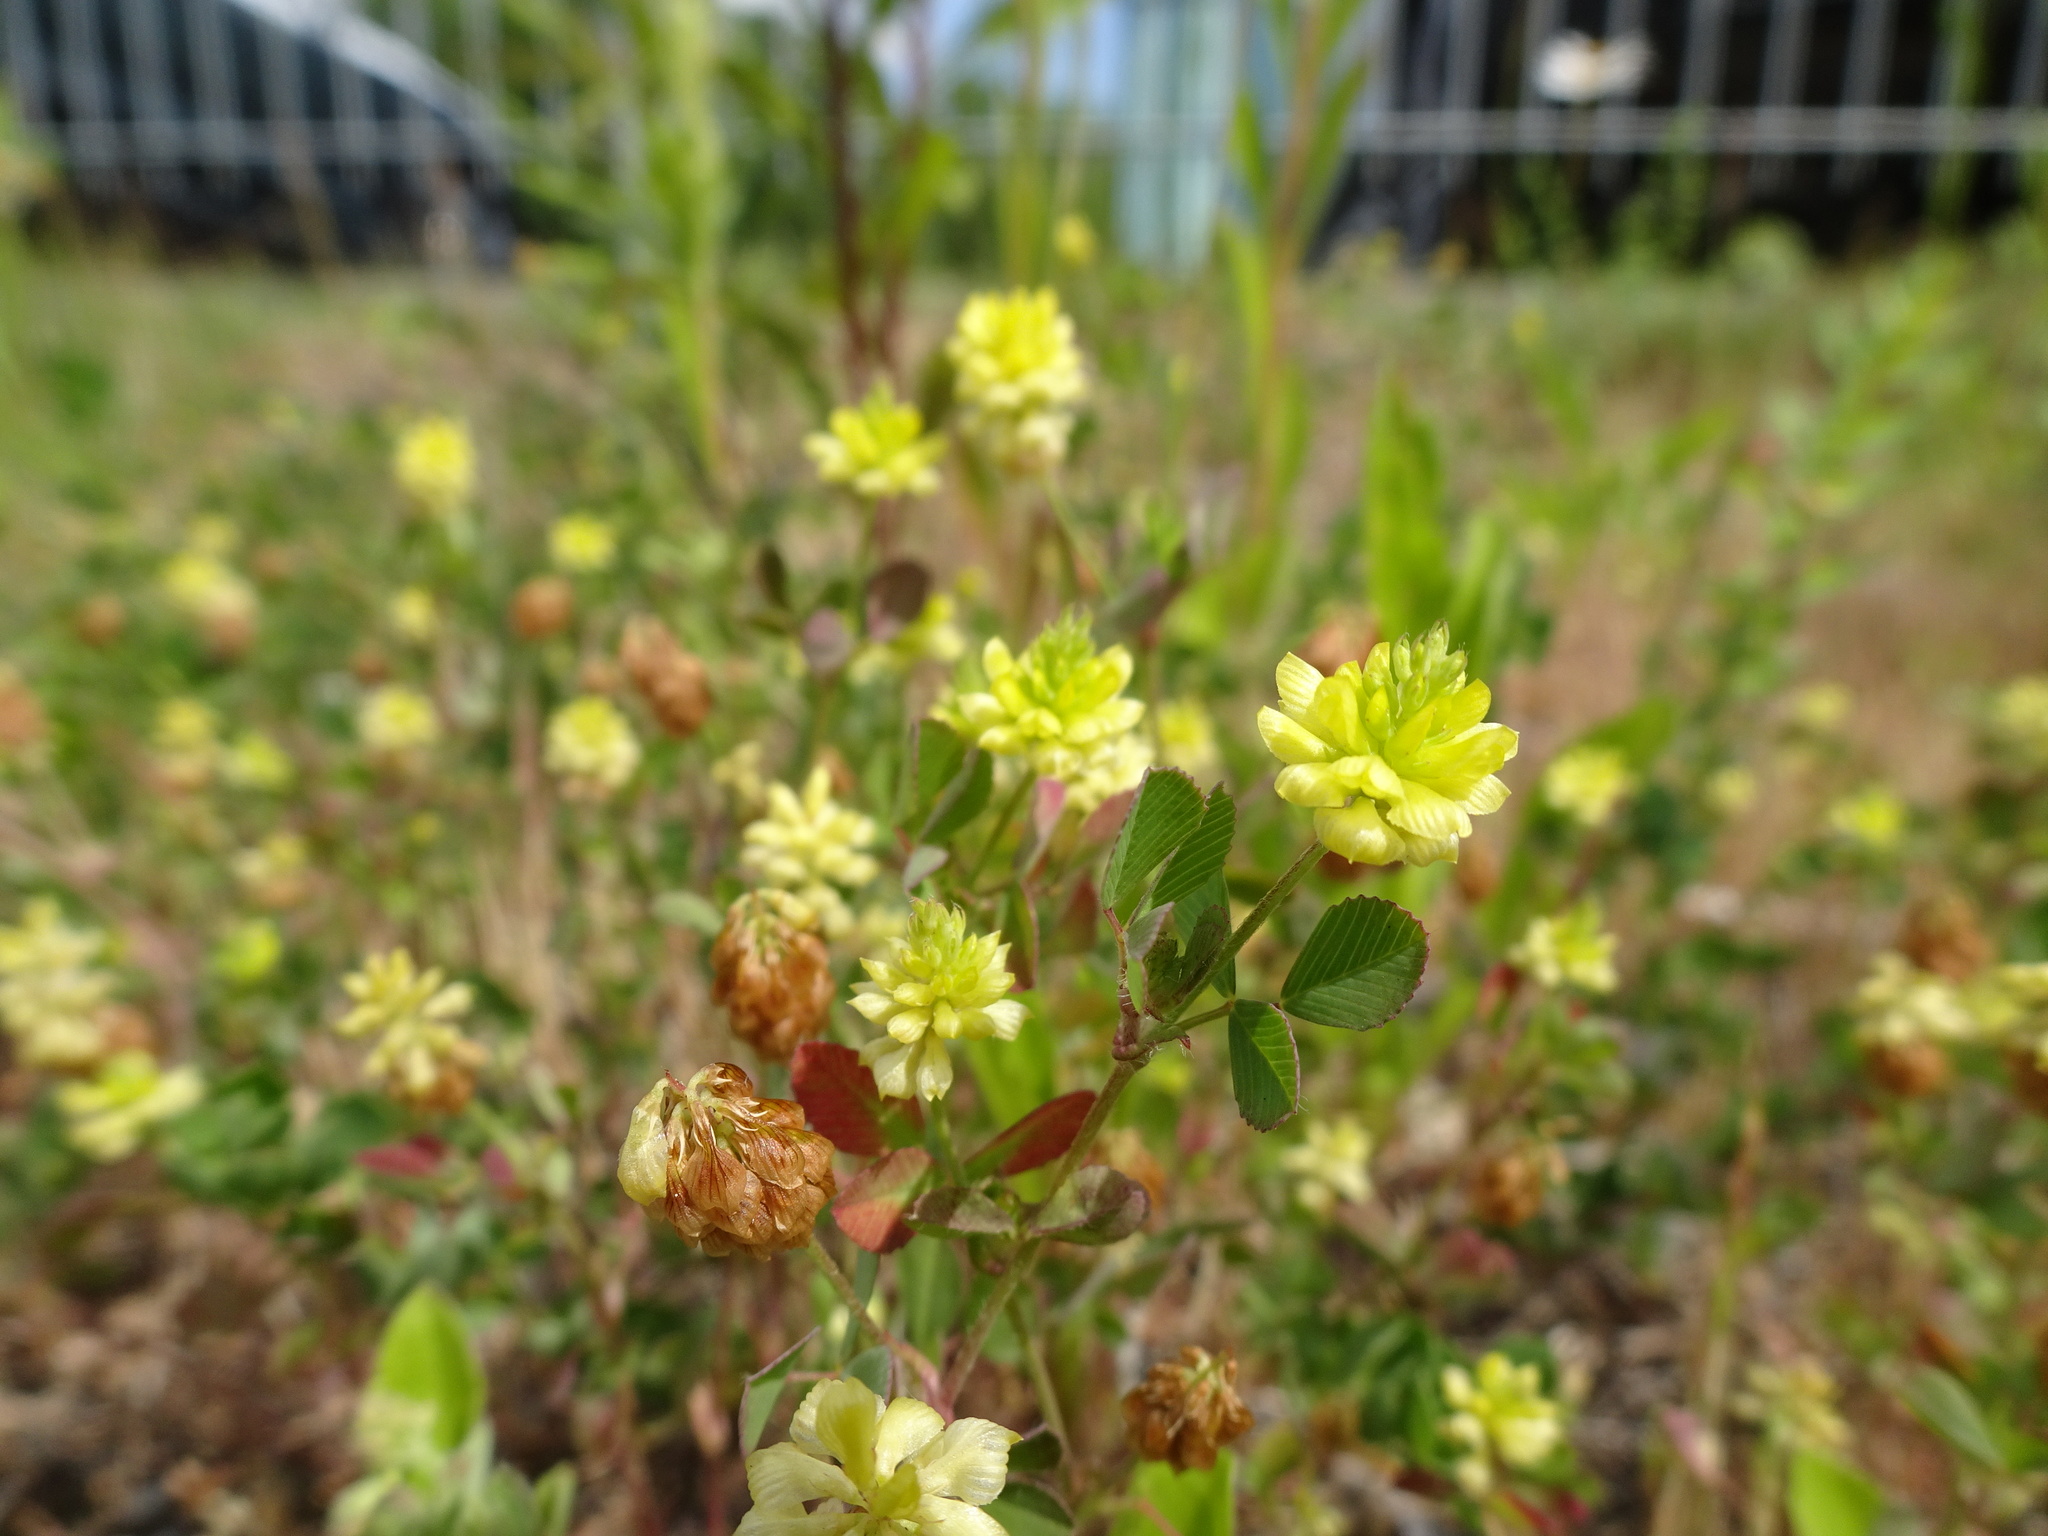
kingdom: Plantae
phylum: Tracheophyta
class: Magnoliopsida
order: Fabales
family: Fabaceae
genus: Trifolium
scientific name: Trifolium campestre
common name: Field clover
